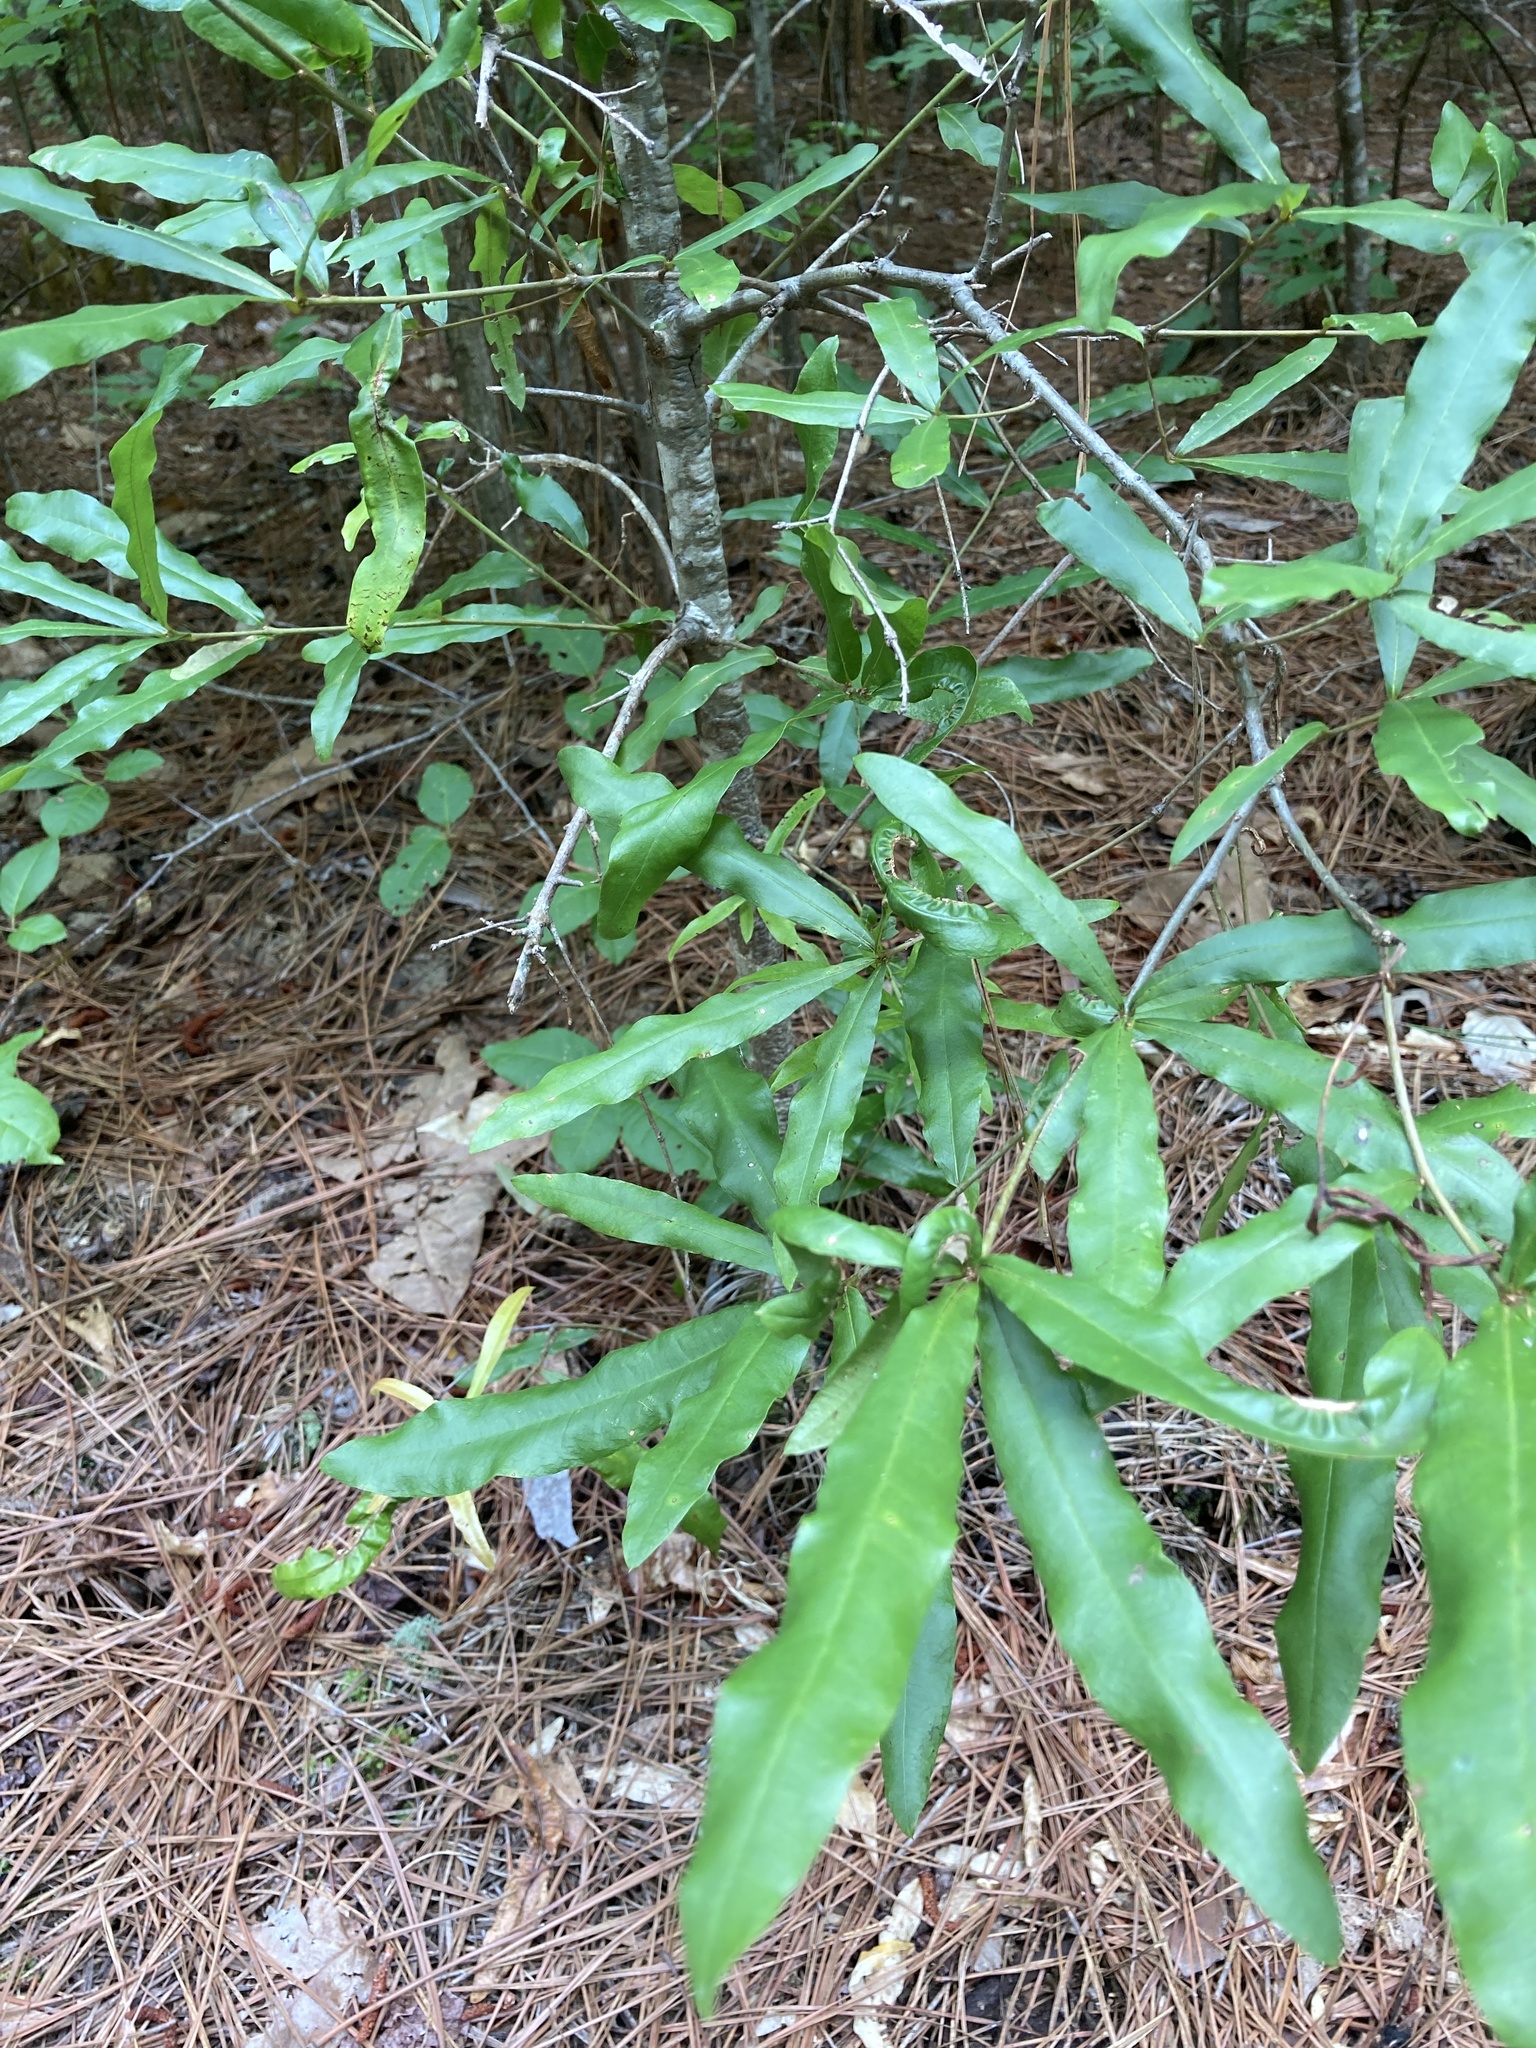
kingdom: Plantae
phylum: Tracheophyta
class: Magnoliopsida
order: Fagales
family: Fagaceae
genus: Quercus
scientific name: Quercus phellos
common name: Willow oak
